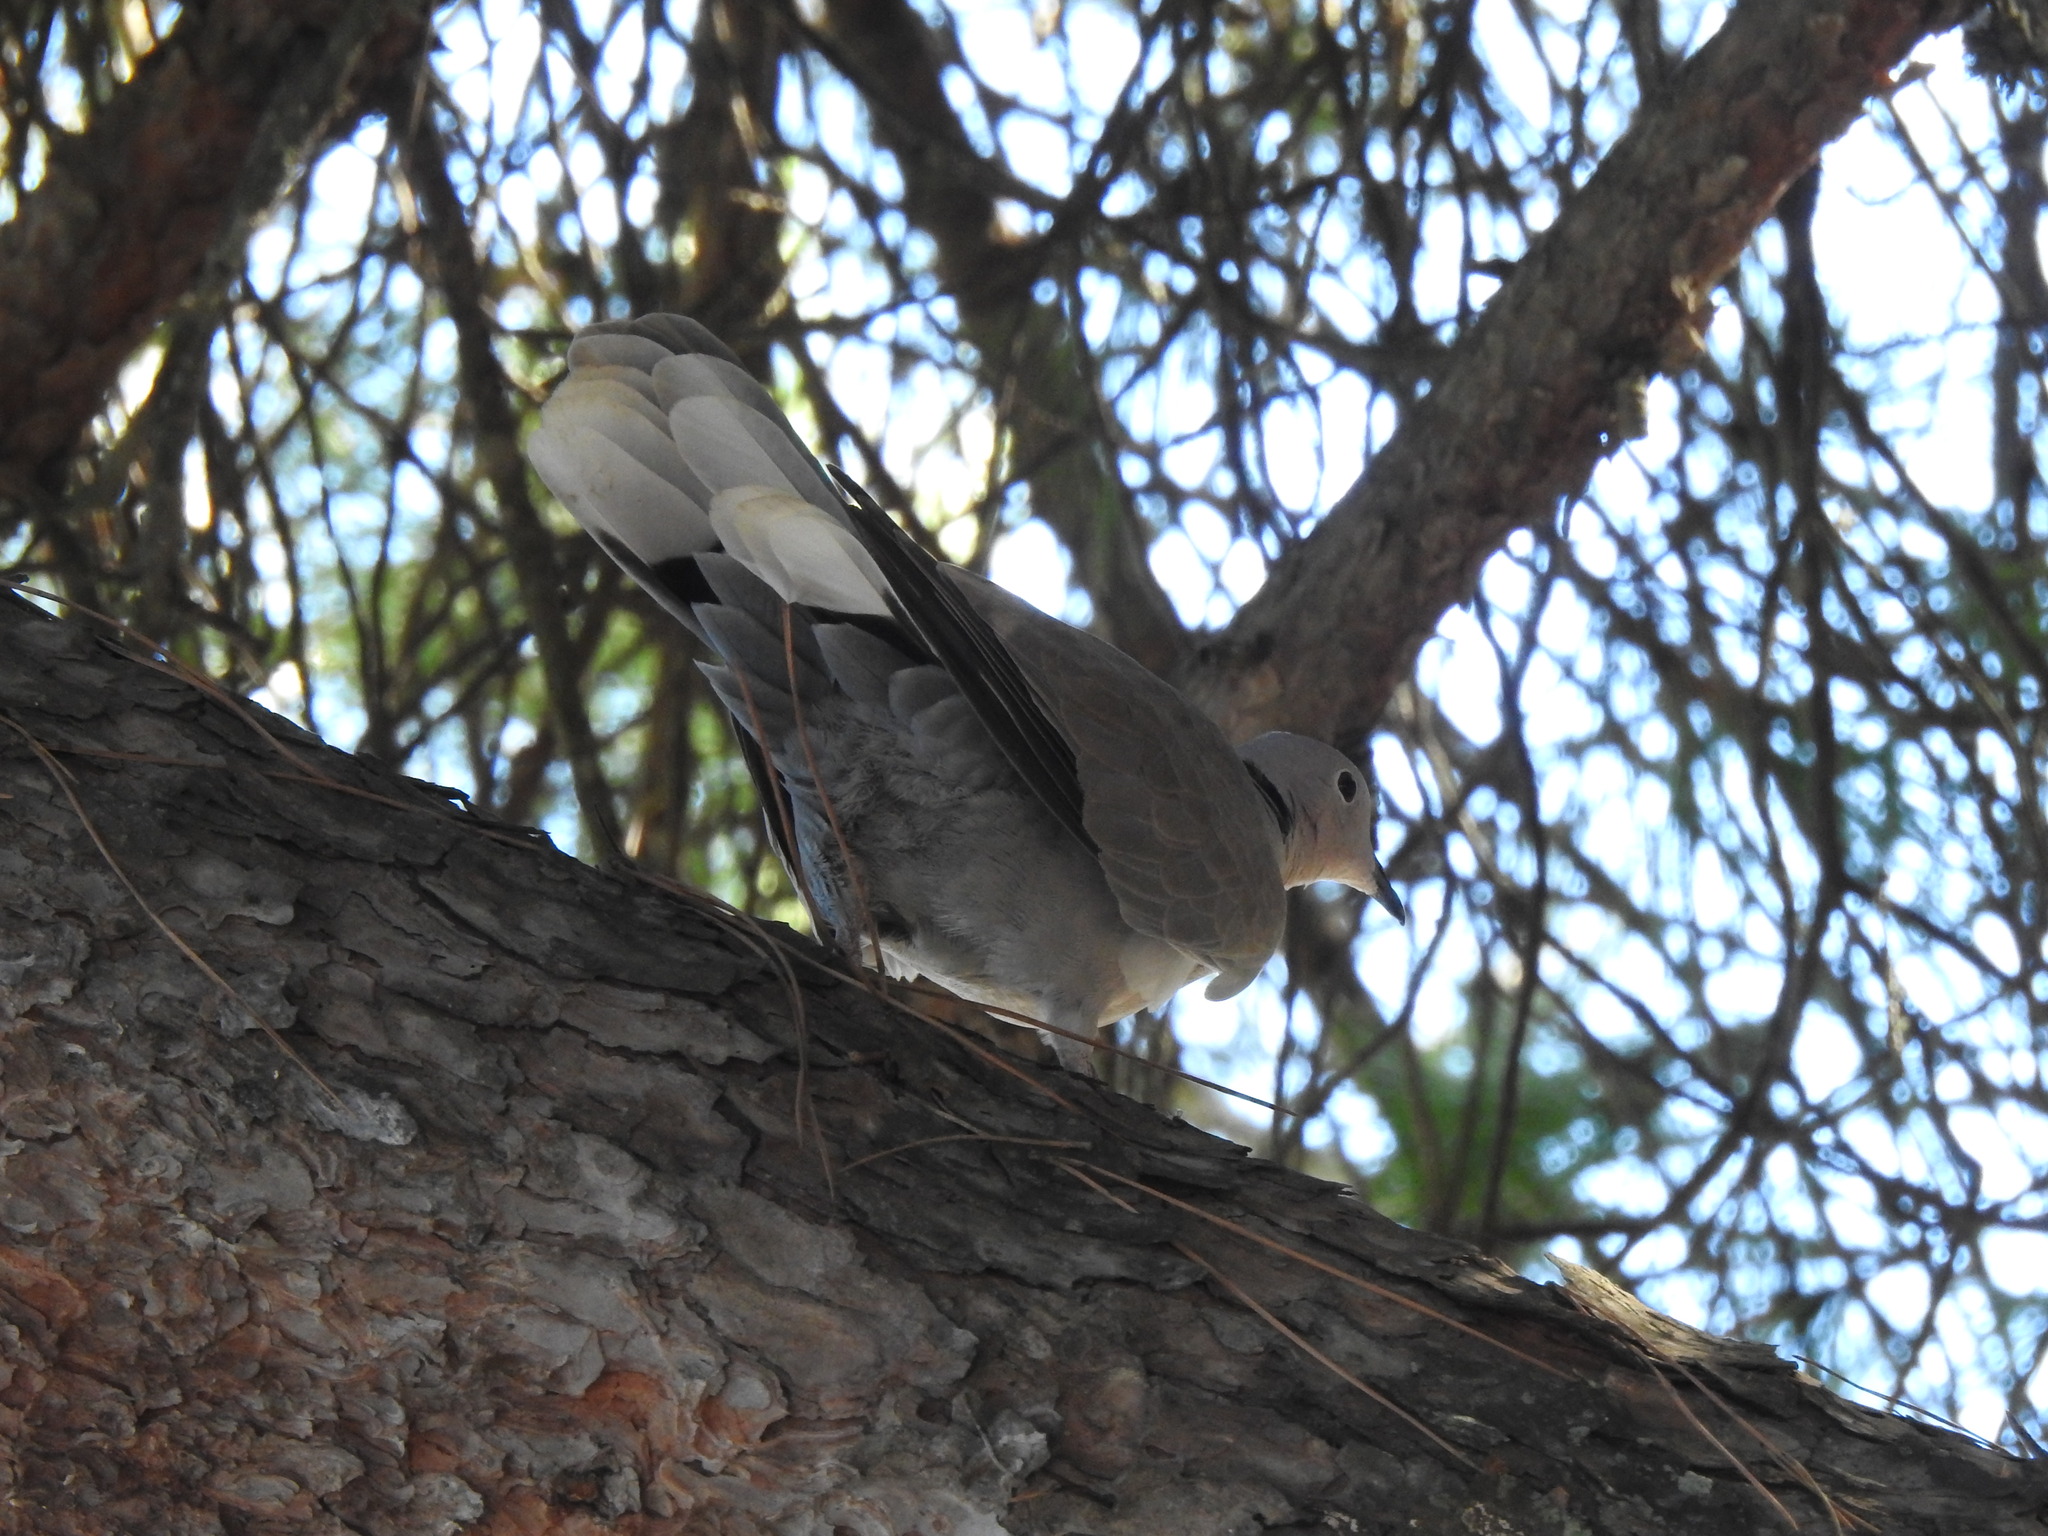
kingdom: Animalia
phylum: Chordata
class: Aves
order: Columbiformes
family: Columbidae
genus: Streptopelia
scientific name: Streptopelia decaocto
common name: Eurasian collared dove
